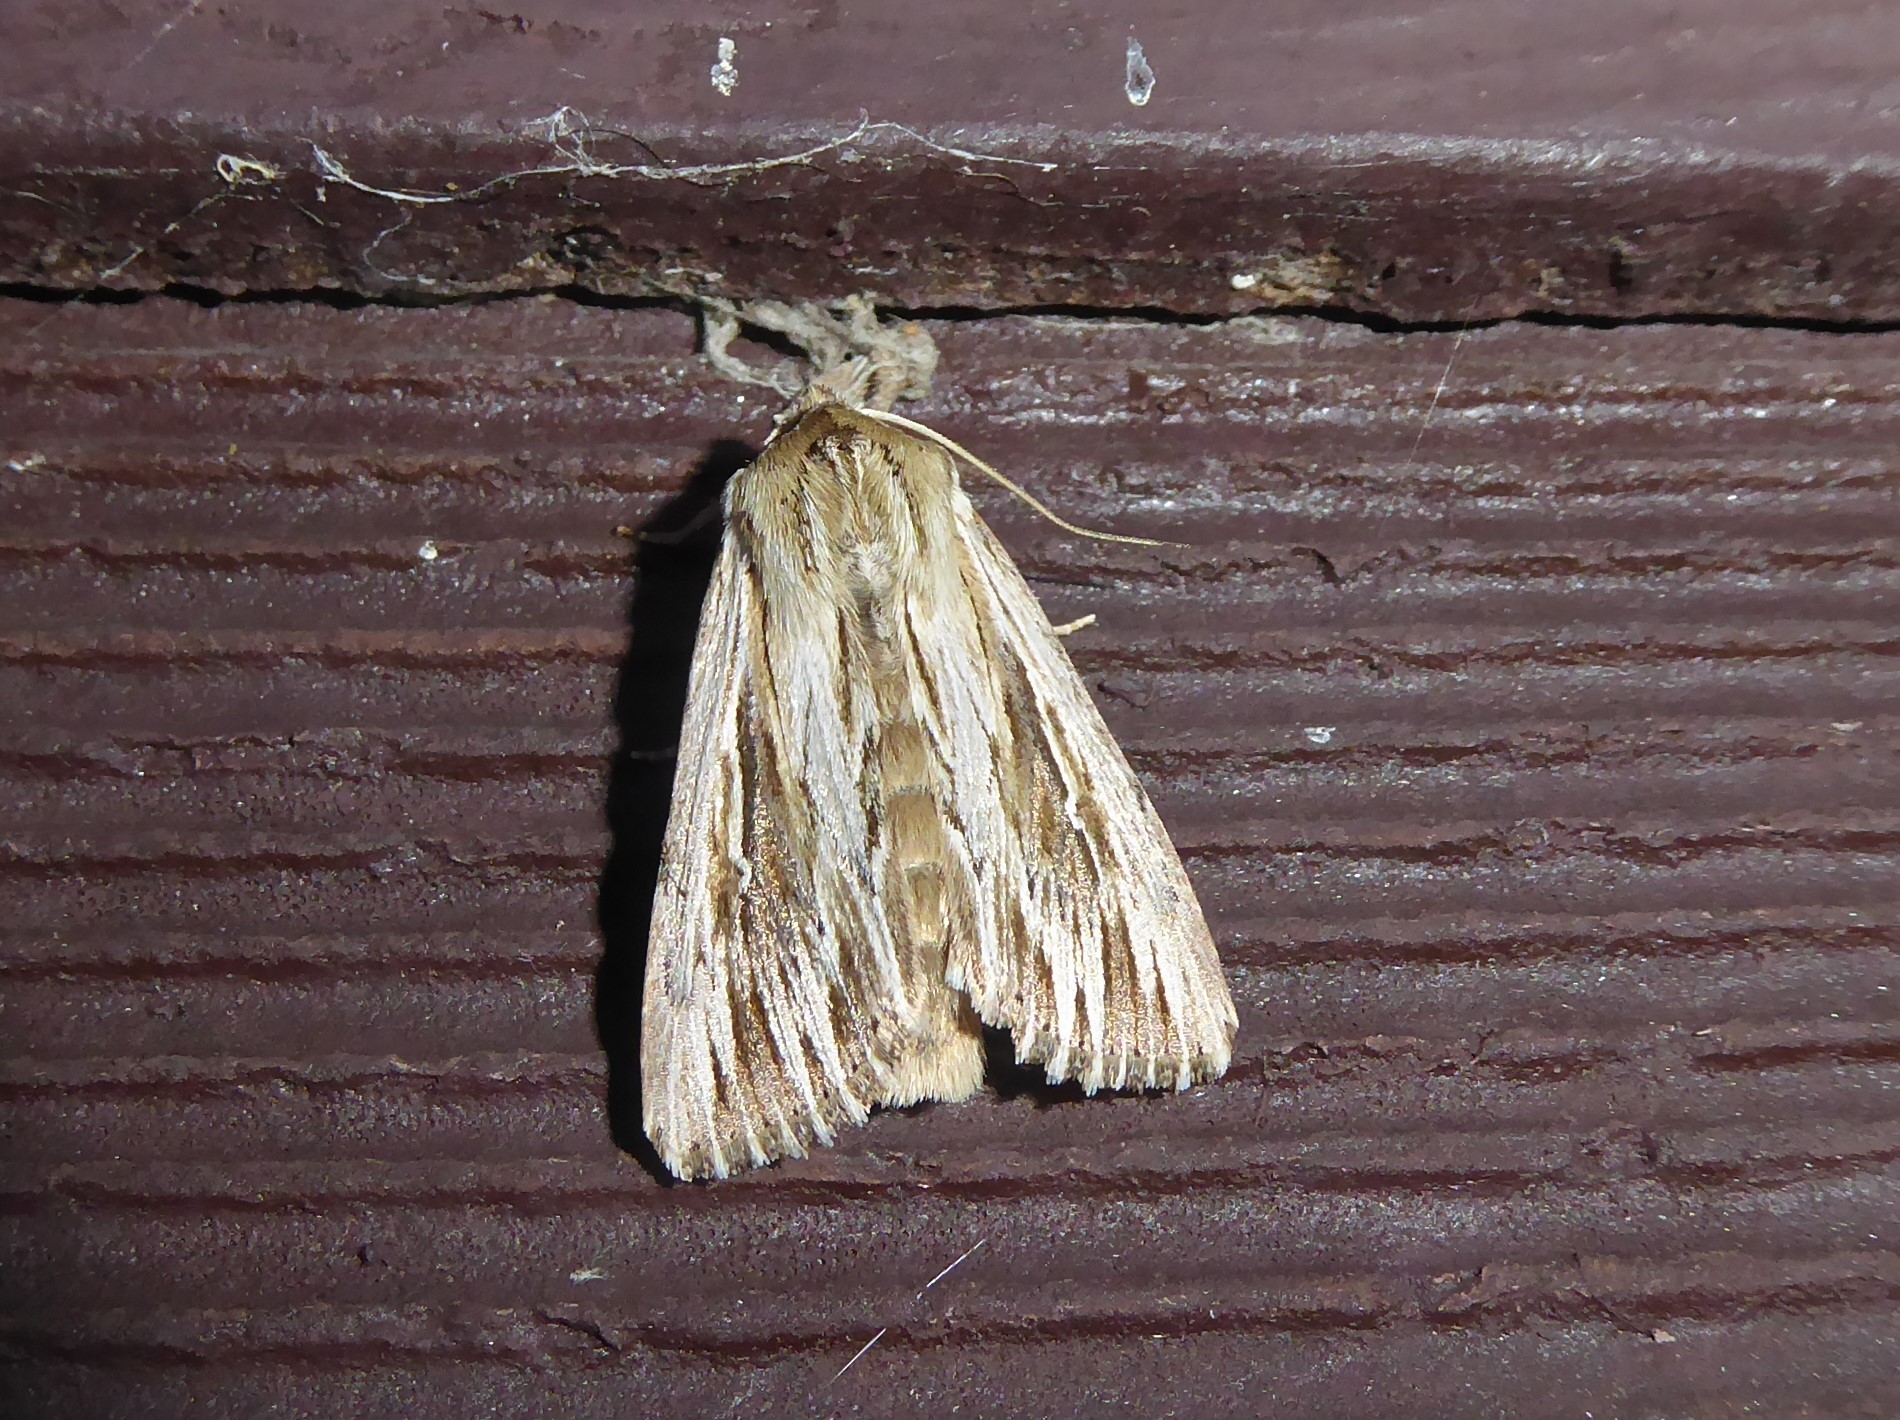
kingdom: Animalia
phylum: Arthropoda
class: Insecta
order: Lepidoptera
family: Noctuidae
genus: Persectania
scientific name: Persectania aversa
